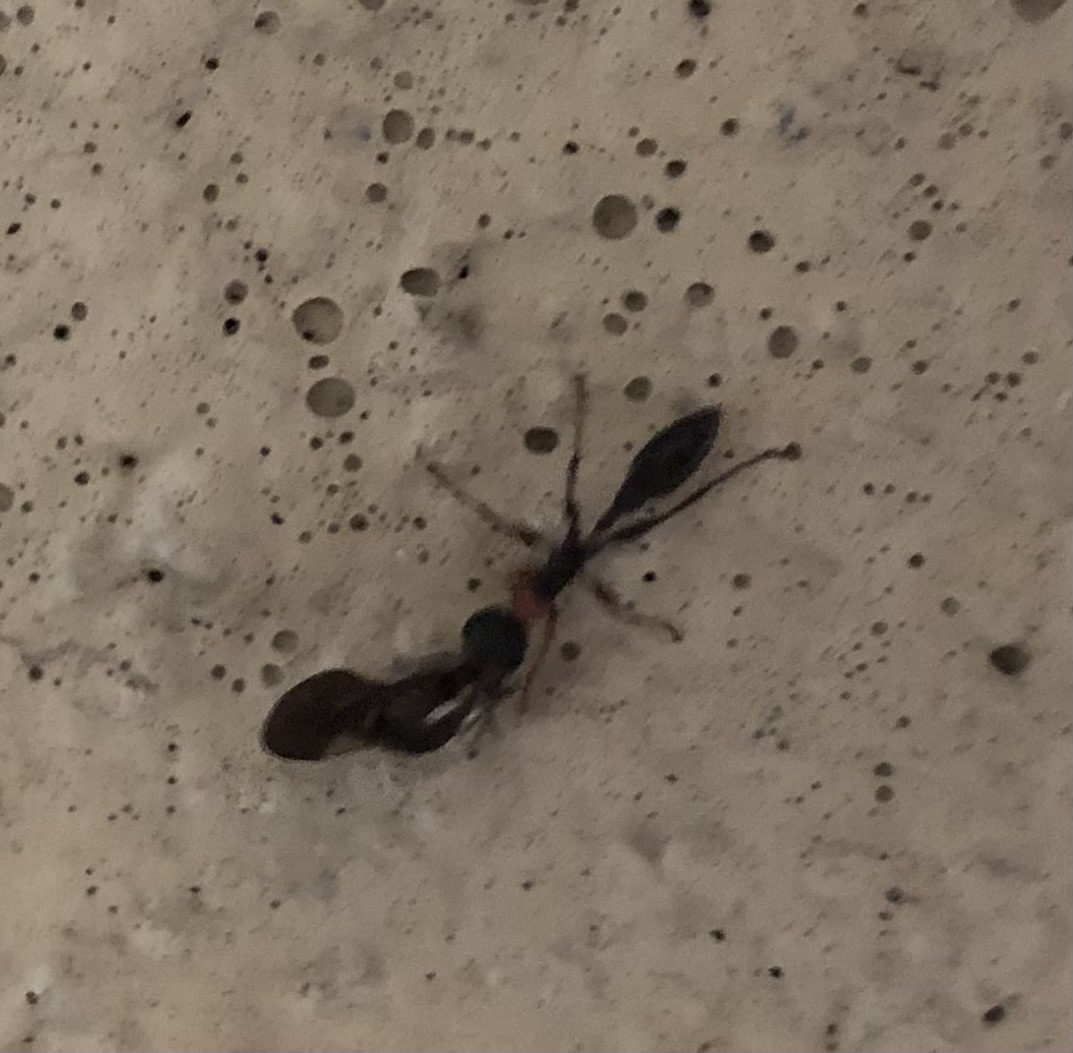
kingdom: Animalia
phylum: Arthropoda
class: Insecta
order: Hymenoptera
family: Formicidae
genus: Pseudomyrmex
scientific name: Pseudomyrmex gracilis
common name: Graceful twig ant
